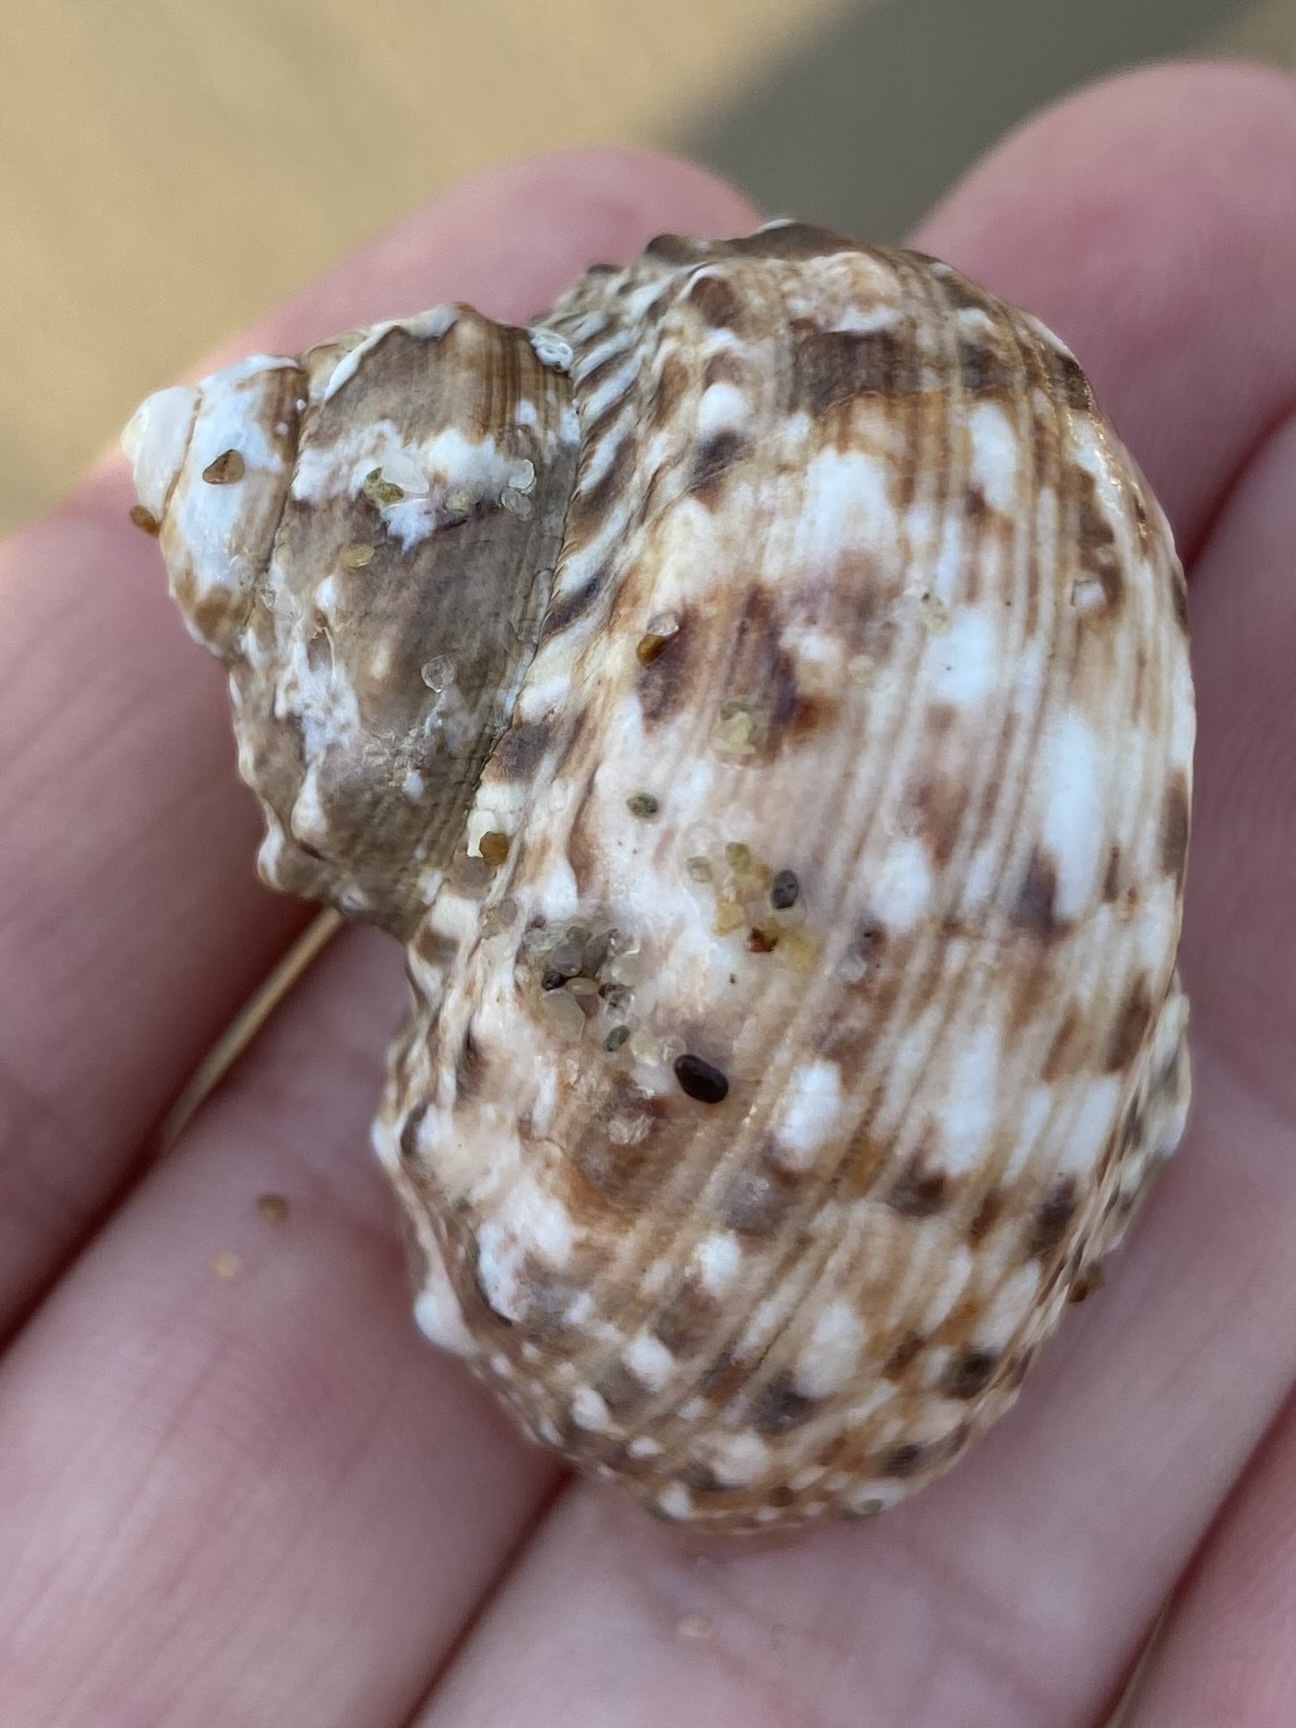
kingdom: Animalia
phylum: Mollusca
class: Gastropoda
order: Trochida
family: Turbinidae
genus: Turbo
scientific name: Turbo fluctuosus
